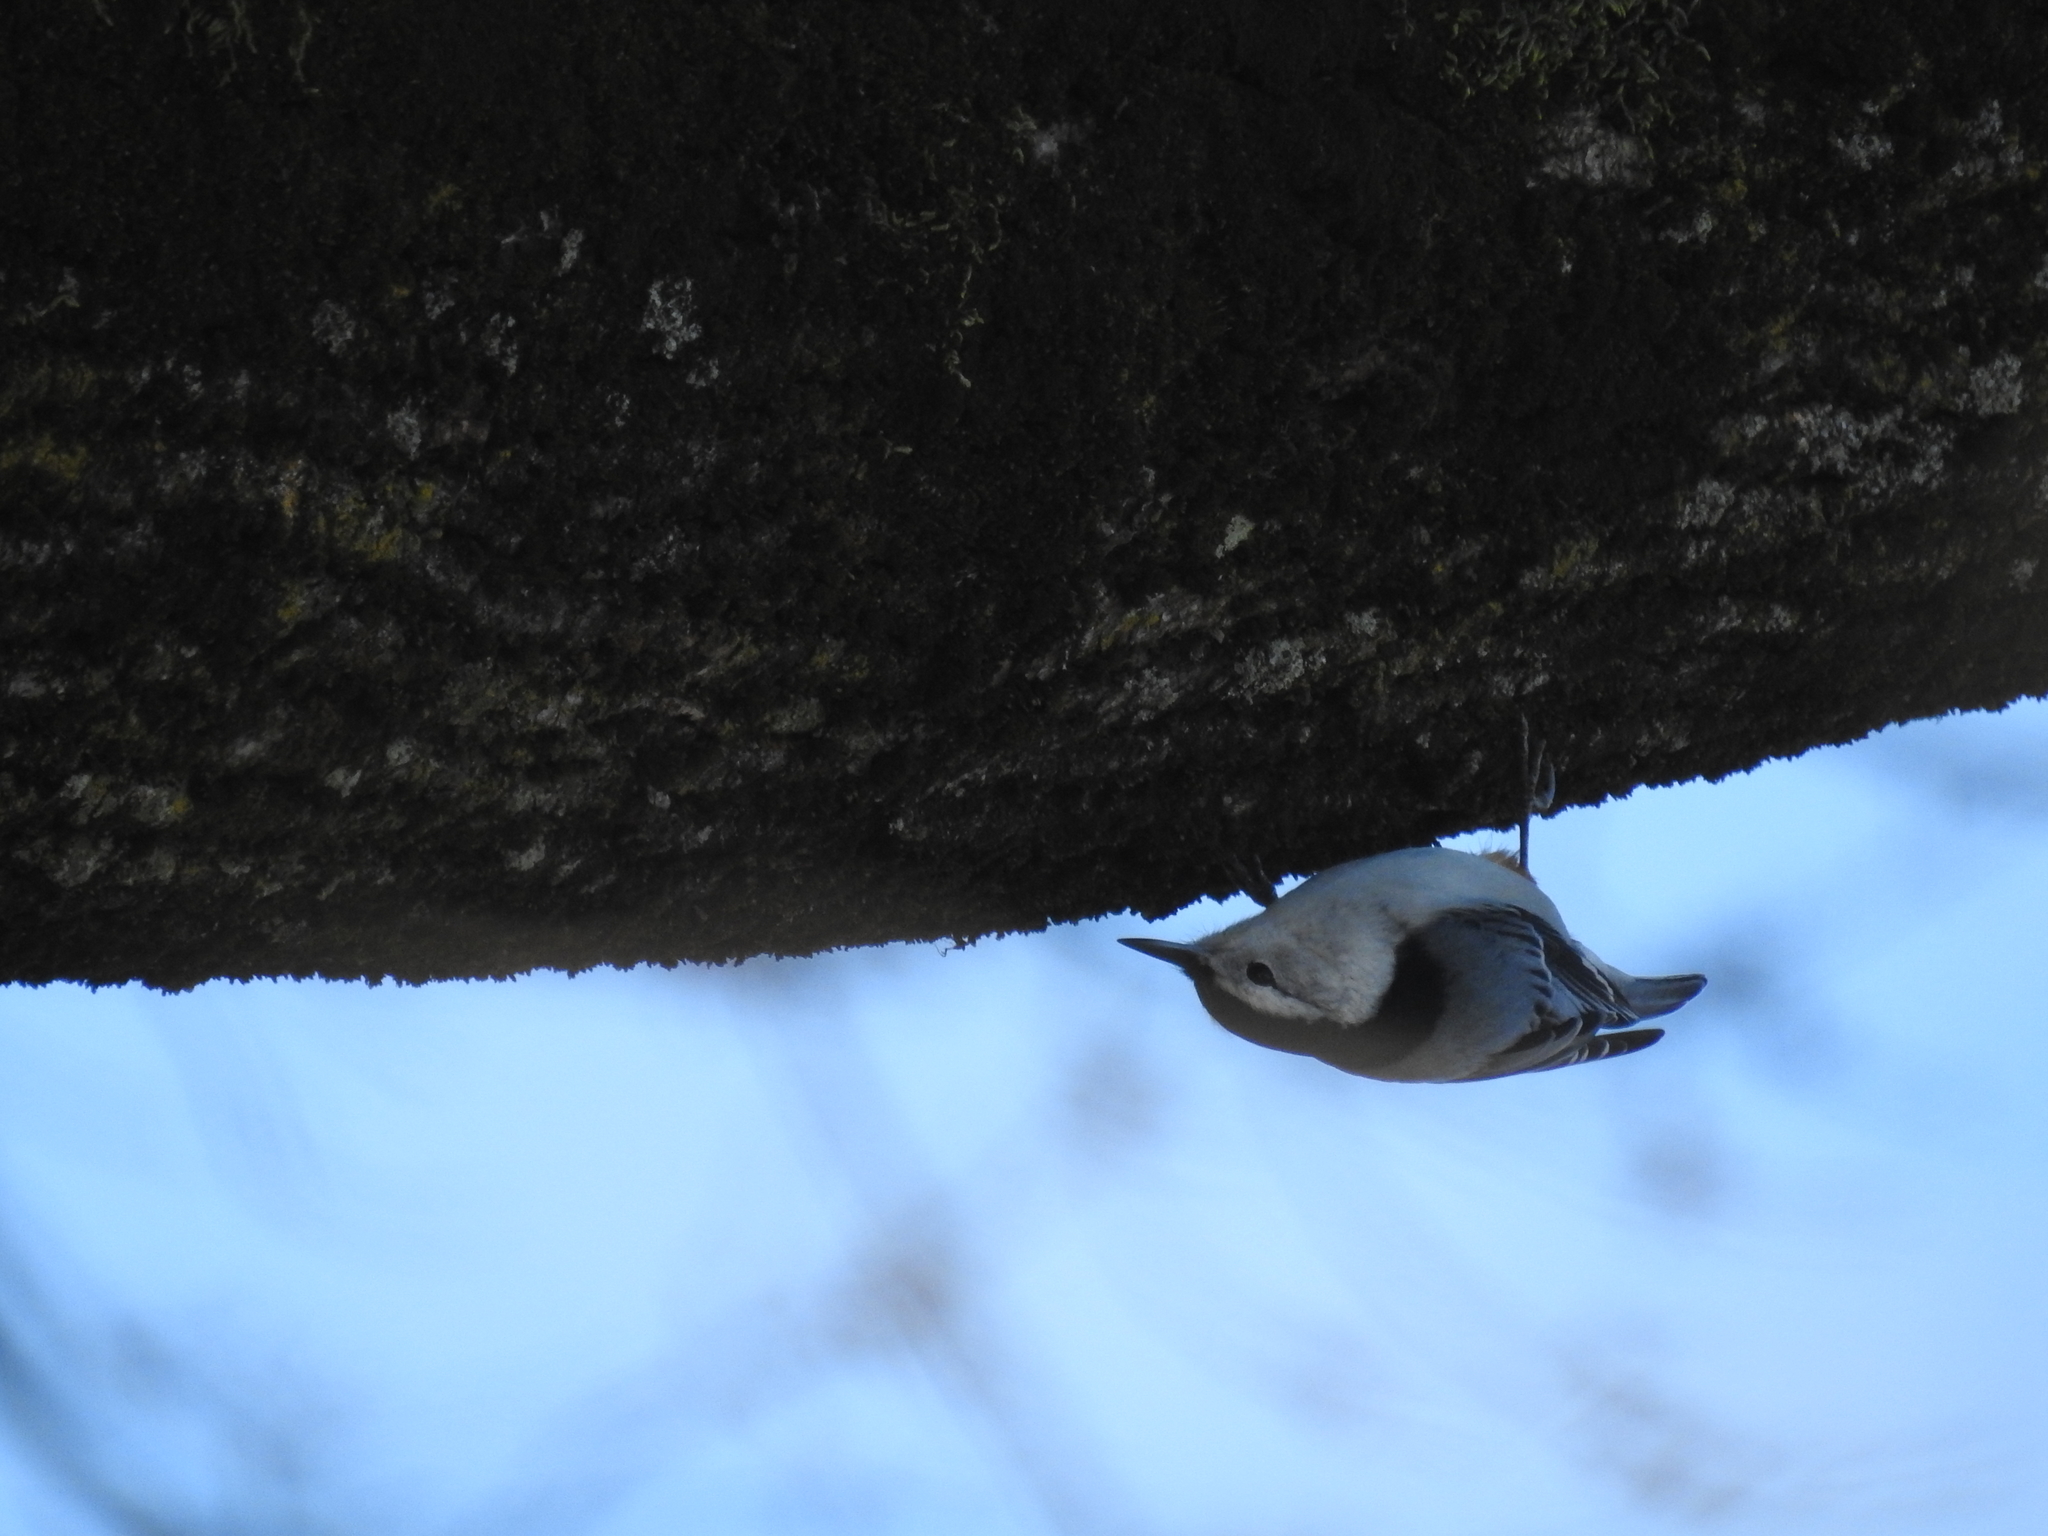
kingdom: Animalia
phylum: Chordata
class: Aves
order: Passeriformes
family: Sittidae
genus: Sitta
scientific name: Sitta carolinensis
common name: White-breasted nuthatch
